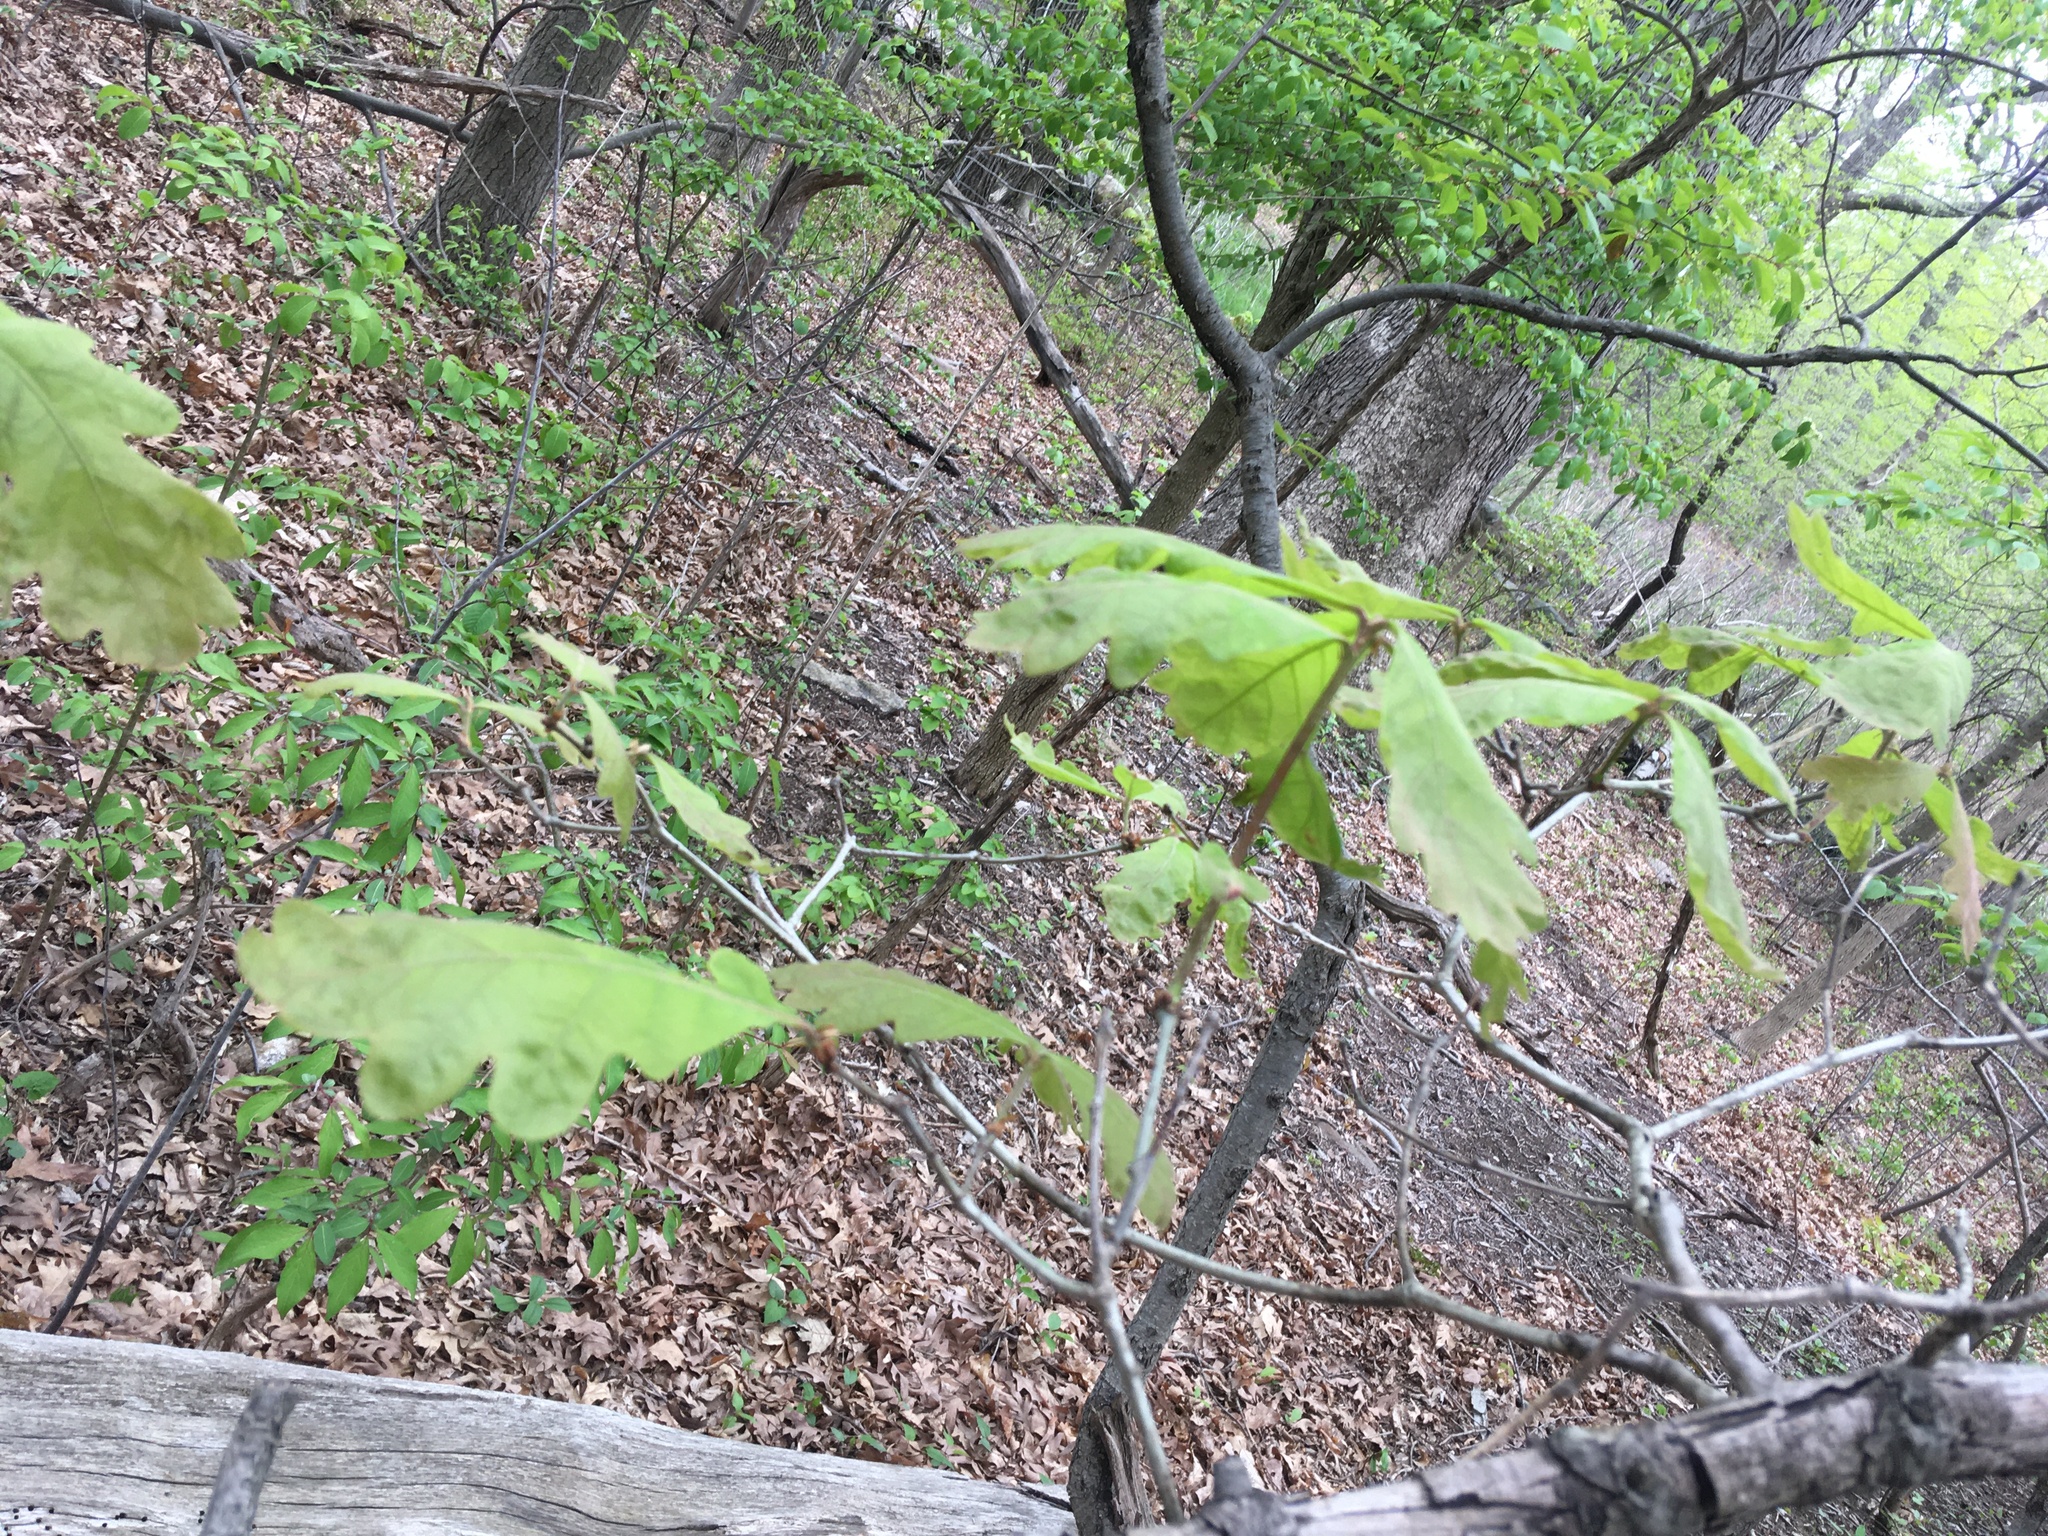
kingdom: Plantae
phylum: Tracheophyta
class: Magnoliopsida
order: Fagales
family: Fagaceae
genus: Quercus
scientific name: Quercus alba
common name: White oak
